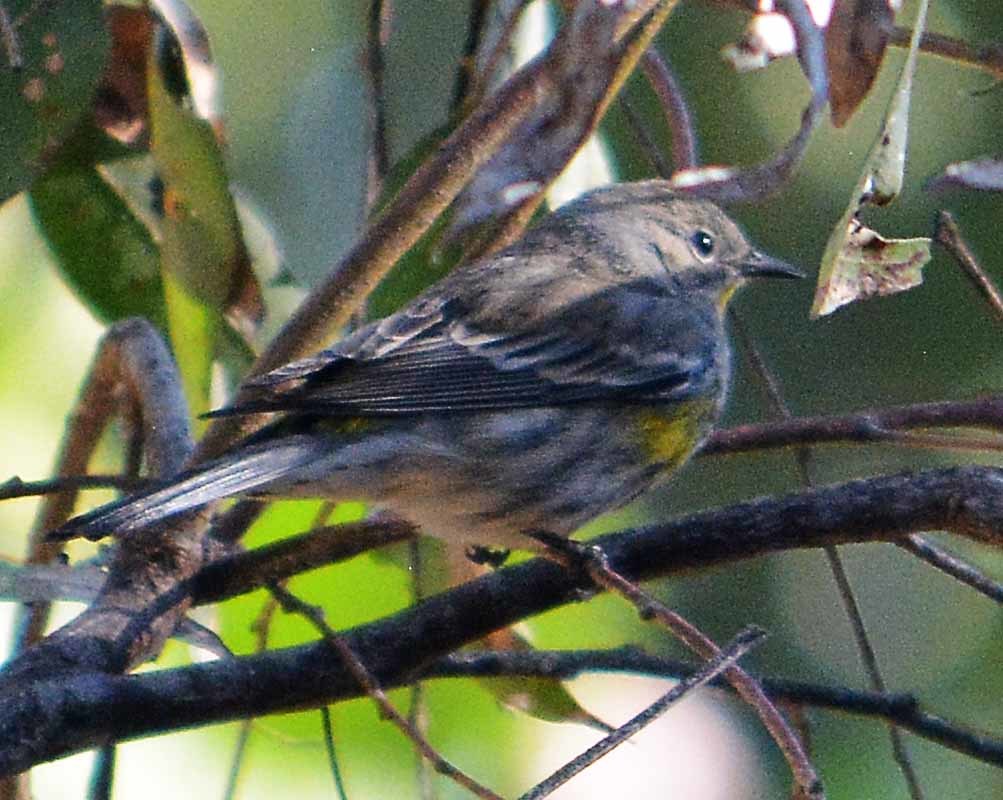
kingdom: Animalia
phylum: Chordata
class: Aves
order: Passeriformes
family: Parulidae
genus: Setophaga
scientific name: Setophaga coronata
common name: Myrtle warbler
